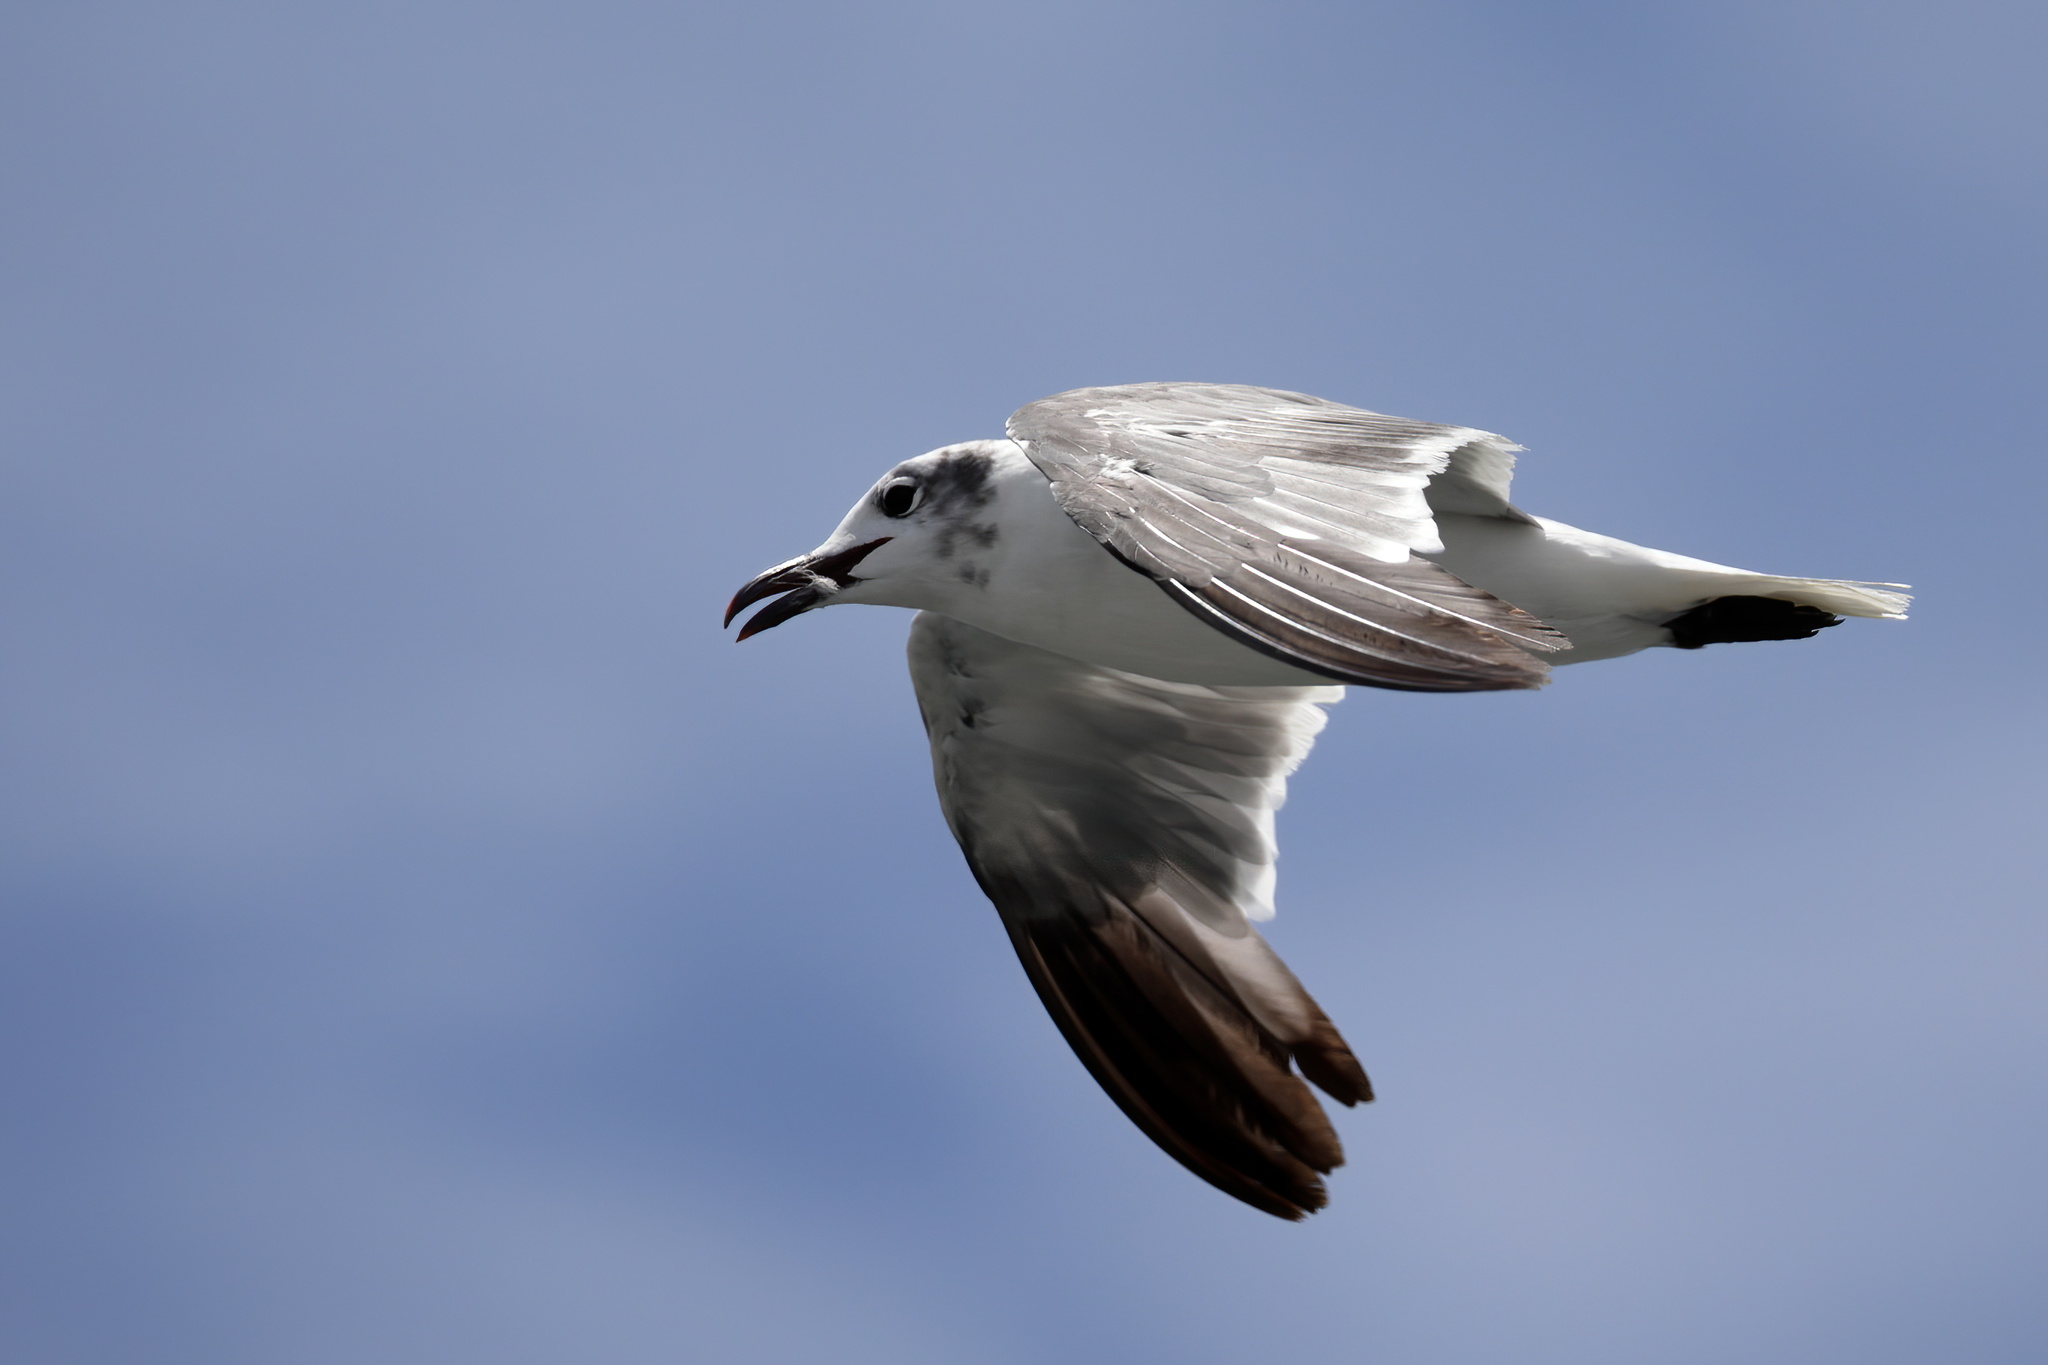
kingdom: Animalia
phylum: Chordata
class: Aves
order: Charadriiformes
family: Laridae
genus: Leucophaeus
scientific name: Leucophaeus atricilla
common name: Laughing gull
